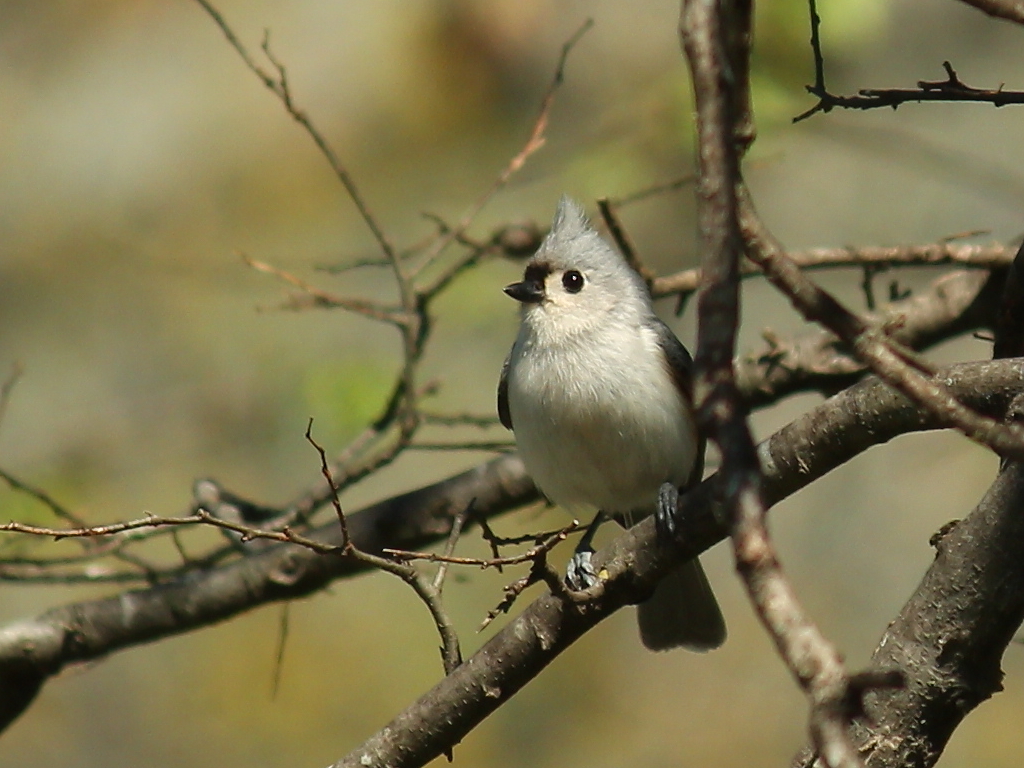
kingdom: Animalia
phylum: Chordata
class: Aves
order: Passeriformes
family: Paridae
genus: Baeolophus
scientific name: Baeolophus bicolor
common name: Tufted titmouse
